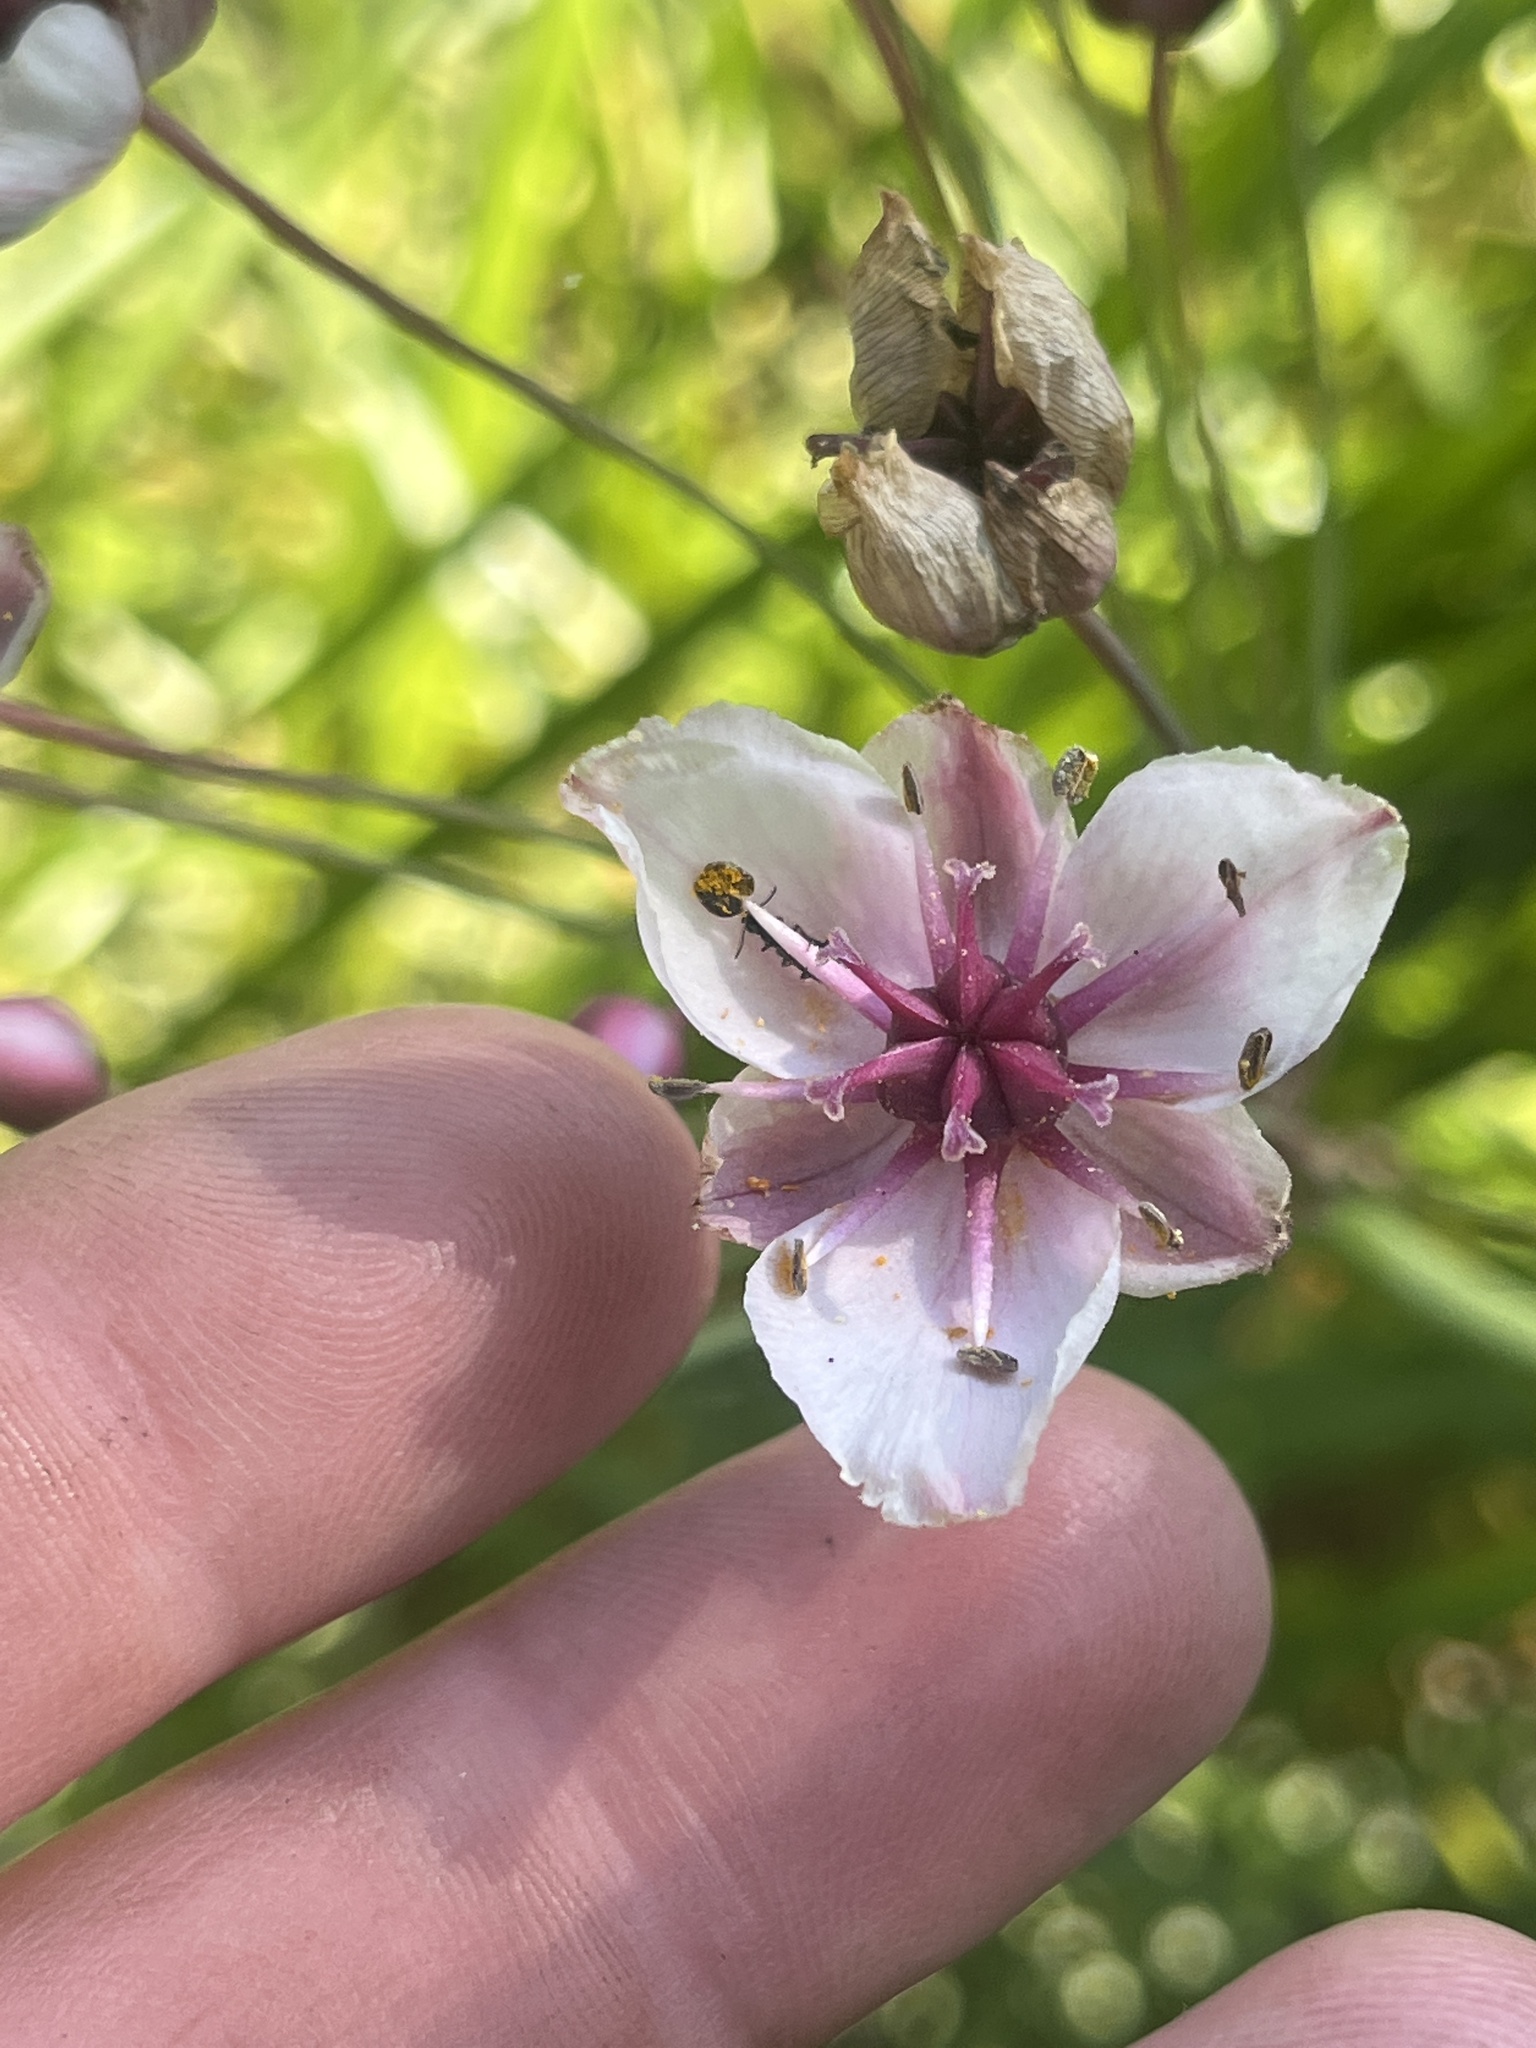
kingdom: Plantae
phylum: Tracheophyta
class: Liliopsida
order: Alismatales
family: Butomaceae
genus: Butomus
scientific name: Butomus umbellatus
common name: Flowering-rush
